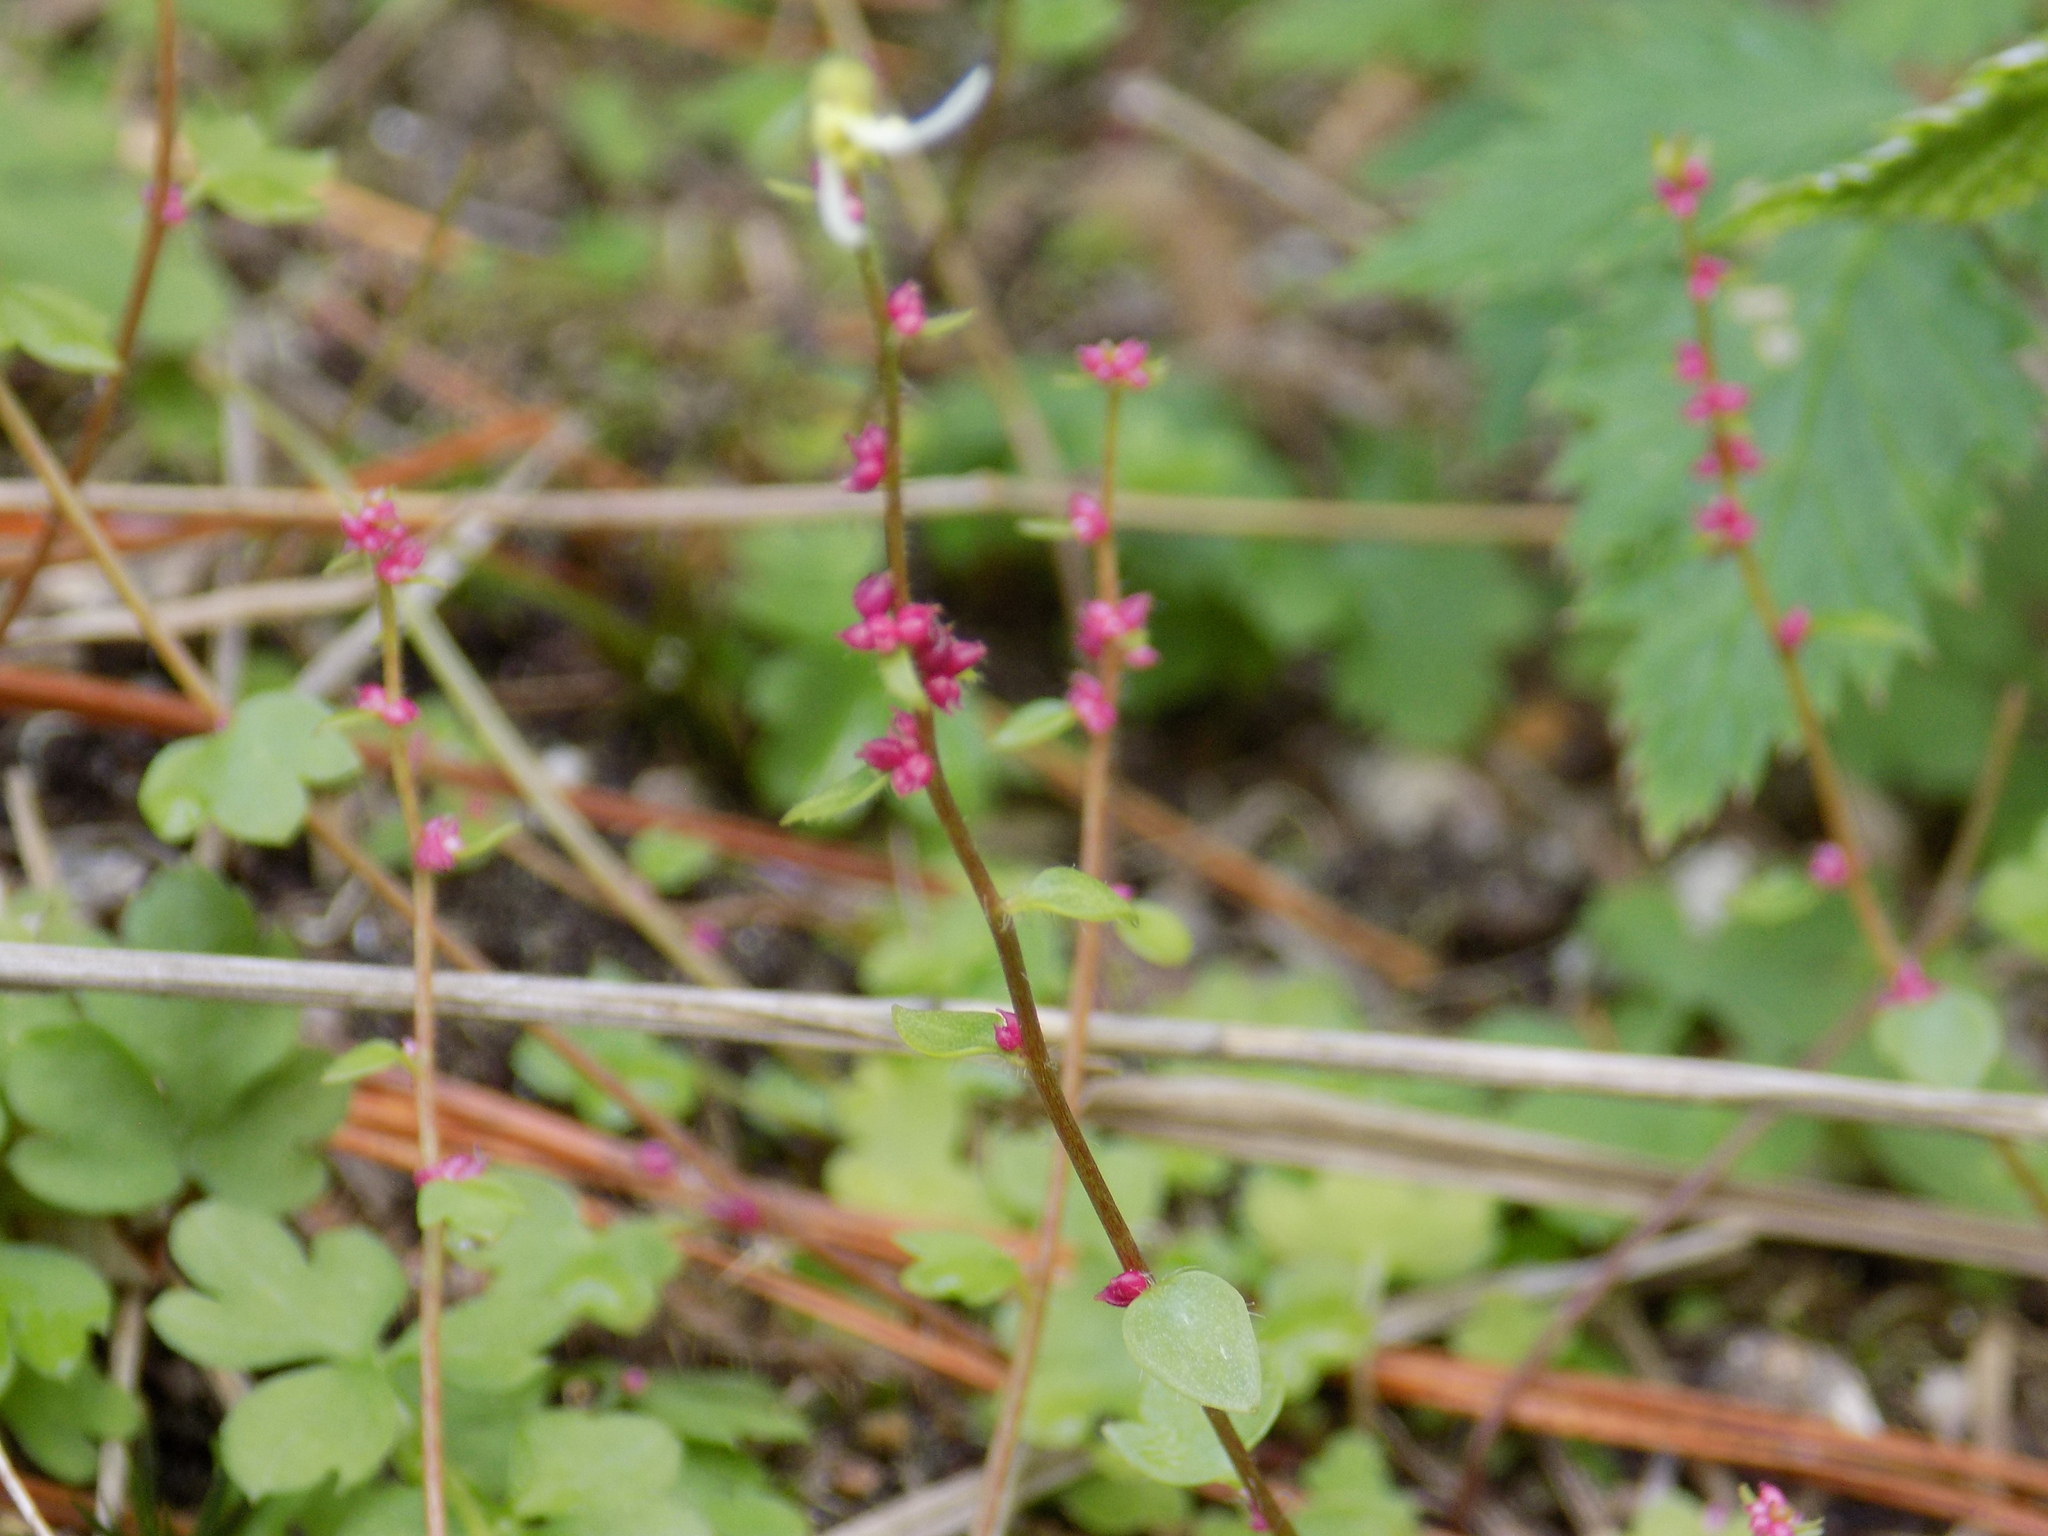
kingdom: Plantae
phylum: Tracheophyta
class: Magnoliopsida
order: Saxifragales
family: Saxifragaceae
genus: Saxifraga
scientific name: Saxifraga cernua
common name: Drooping saxifrage
